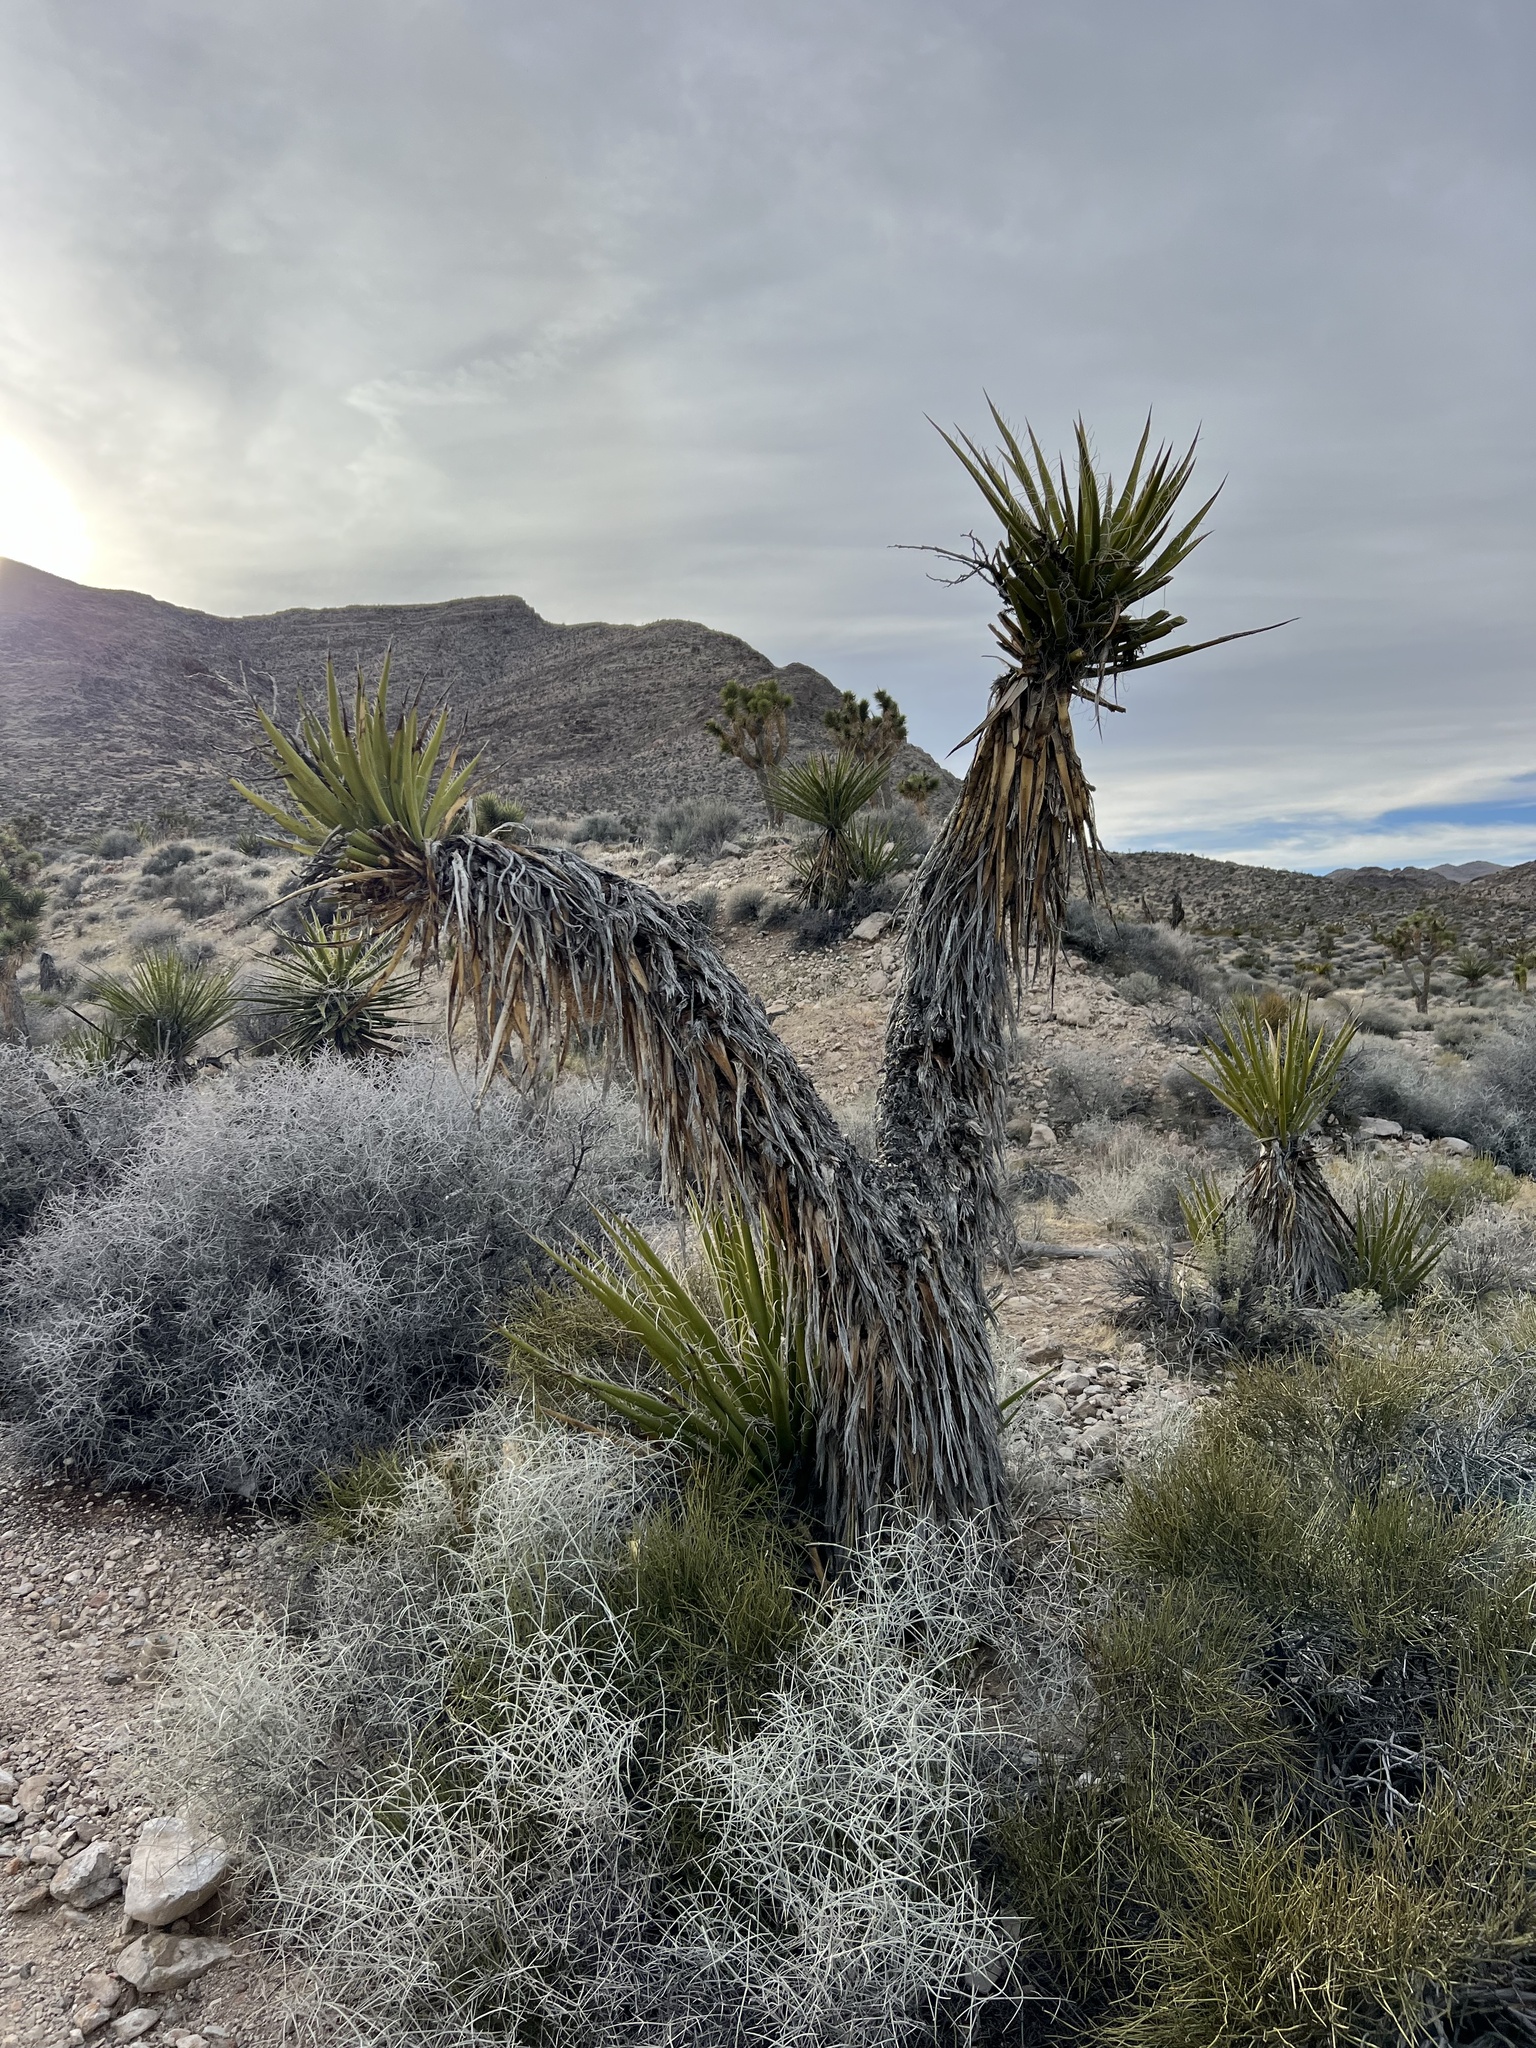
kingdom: Plantae
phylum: Tracheophyta
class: Liliopsida
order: Asparagales
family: Asparagaceae
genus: Yucca
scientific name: Yucca schidigera
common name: Mojave yucca
